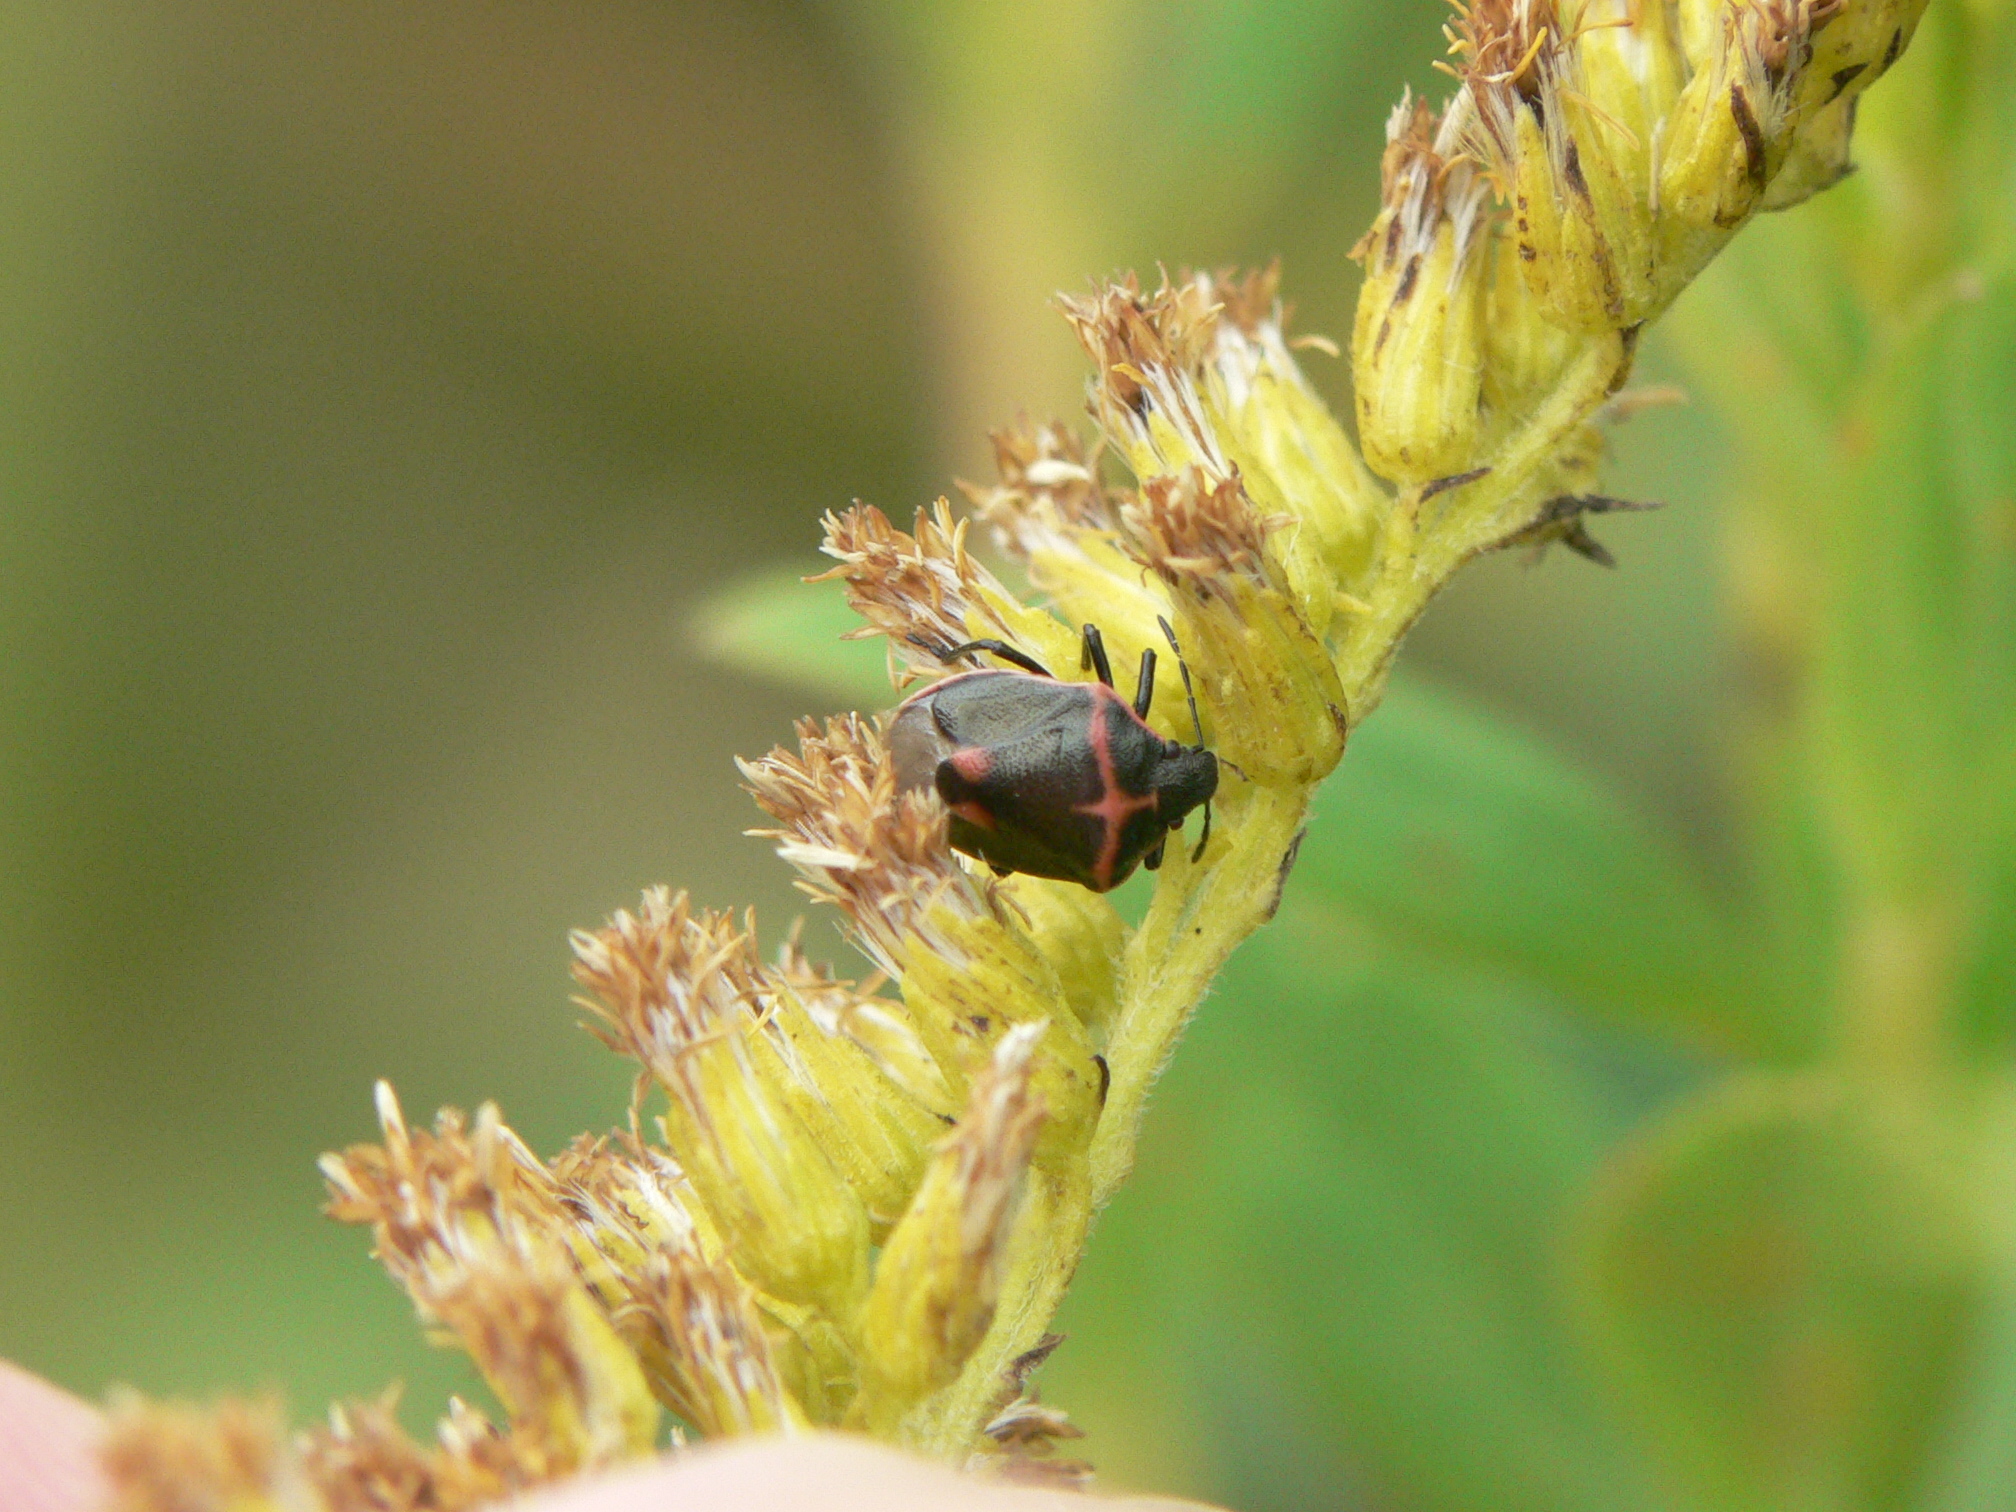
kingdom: Animalia
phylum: Arthropoda
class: Insecta
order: Hemiptera
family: Pentatomidae
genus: Cosmopepla
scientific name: Cosmopepla lintneriana
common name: Twice-stabbed stink bug
